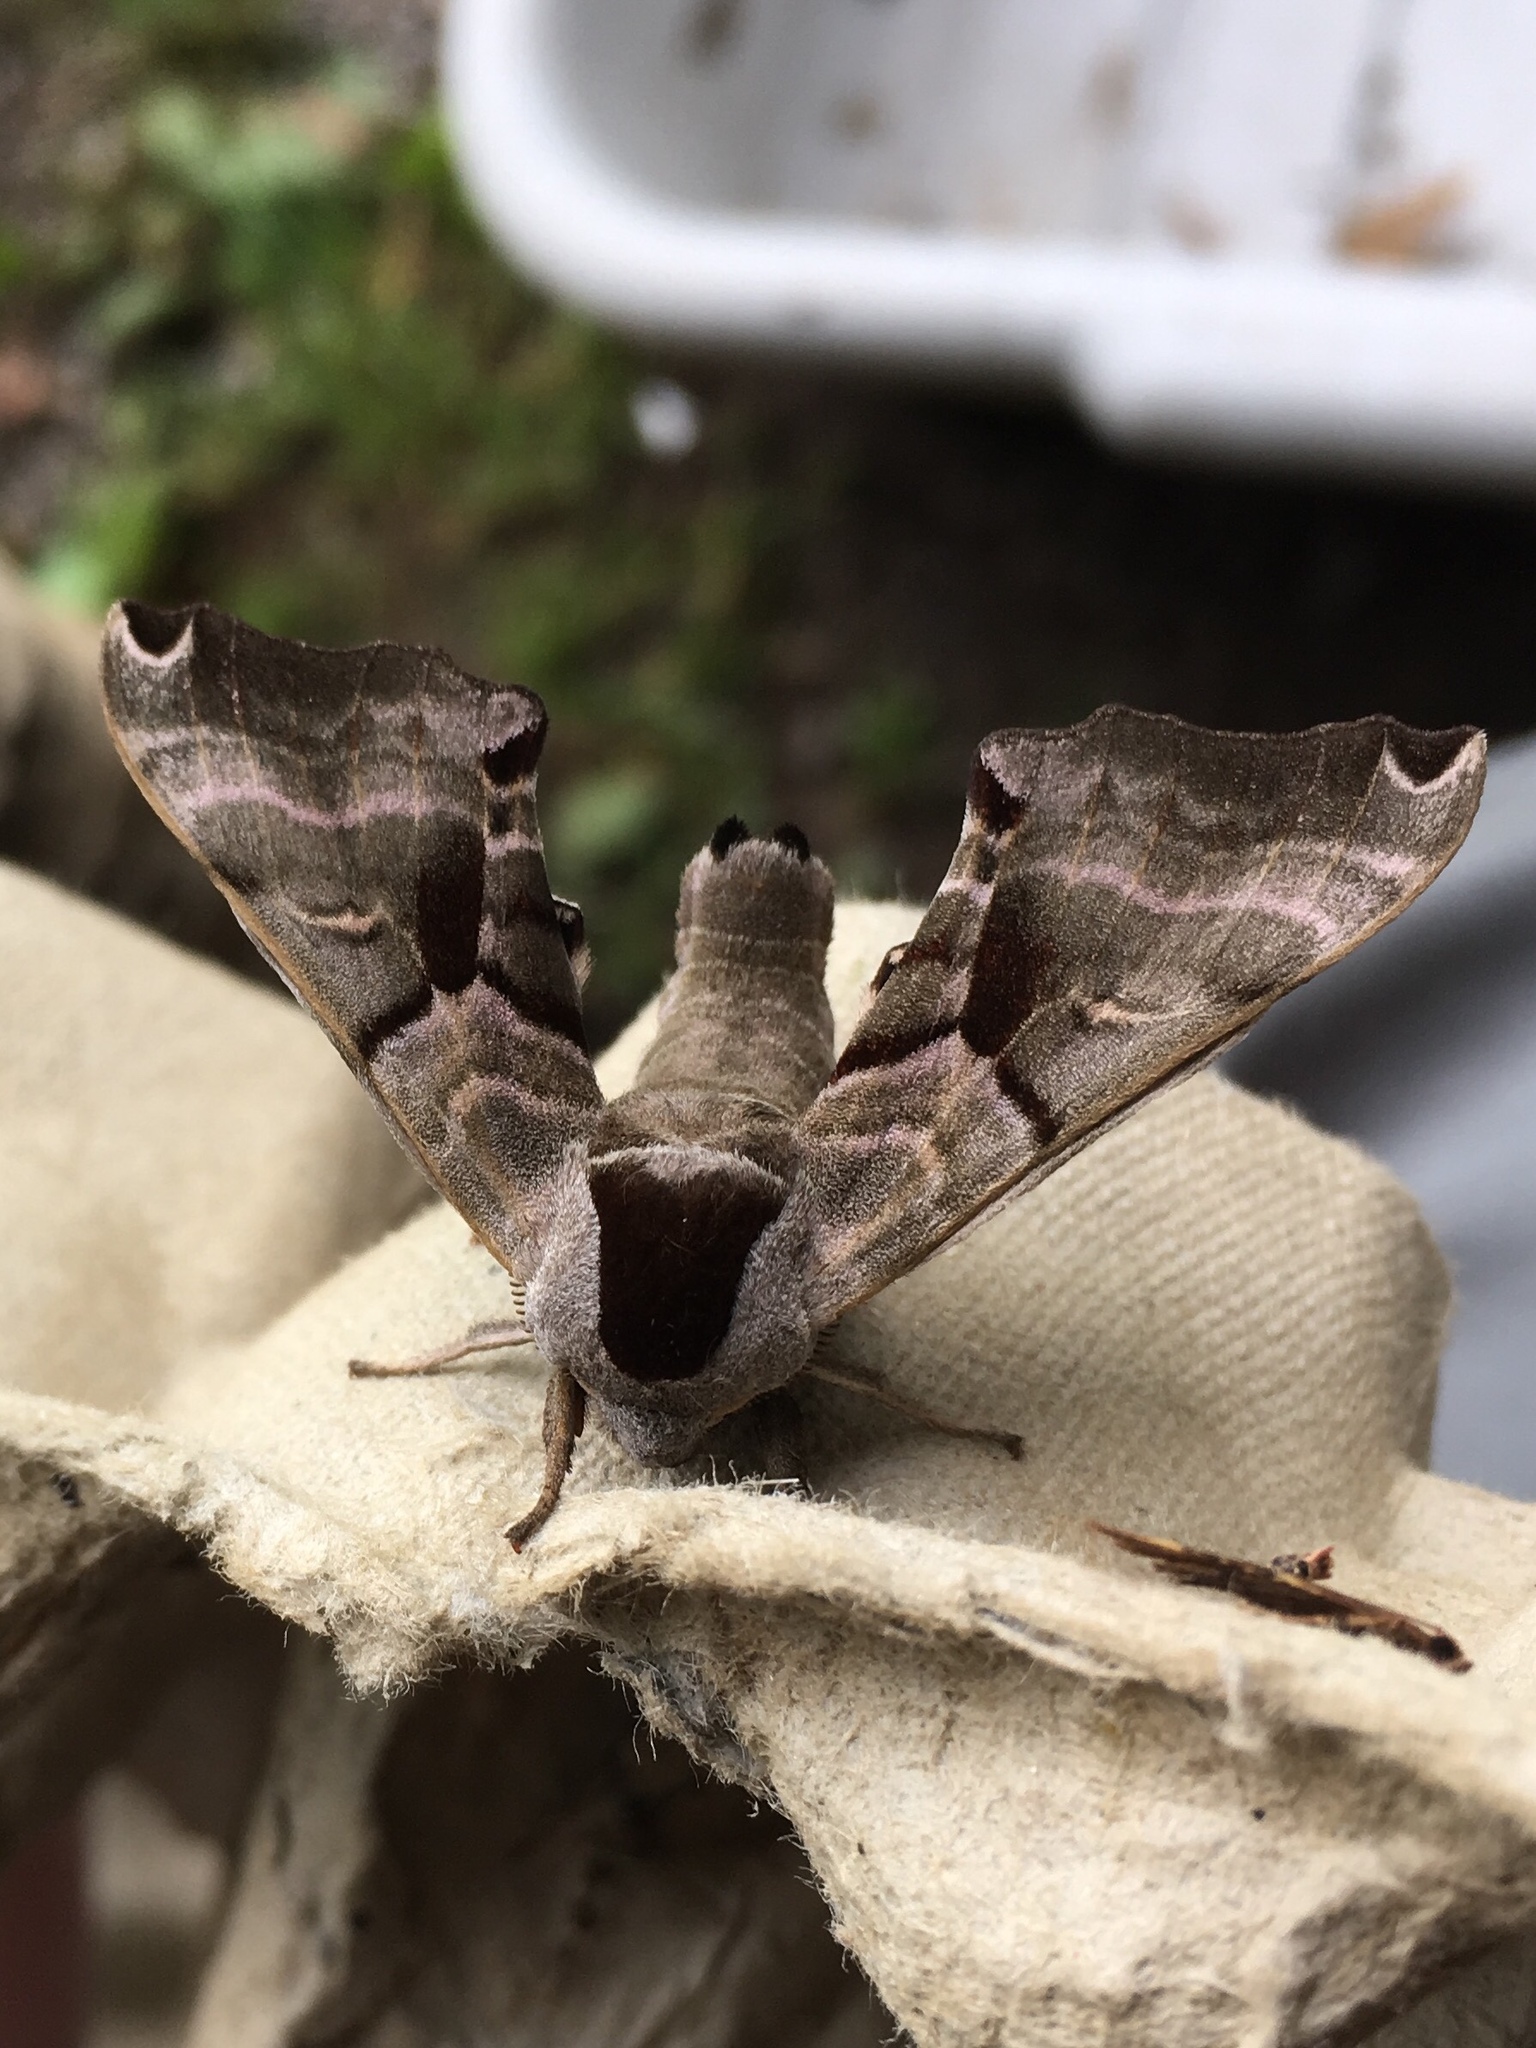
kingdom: Animalia
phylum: Arthropoda
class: Insecta
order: Lepidoptera
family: Sphingidae
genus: Smerinthus
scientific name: Smerinthus jamaicensis
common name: Twin spotted sphinx
